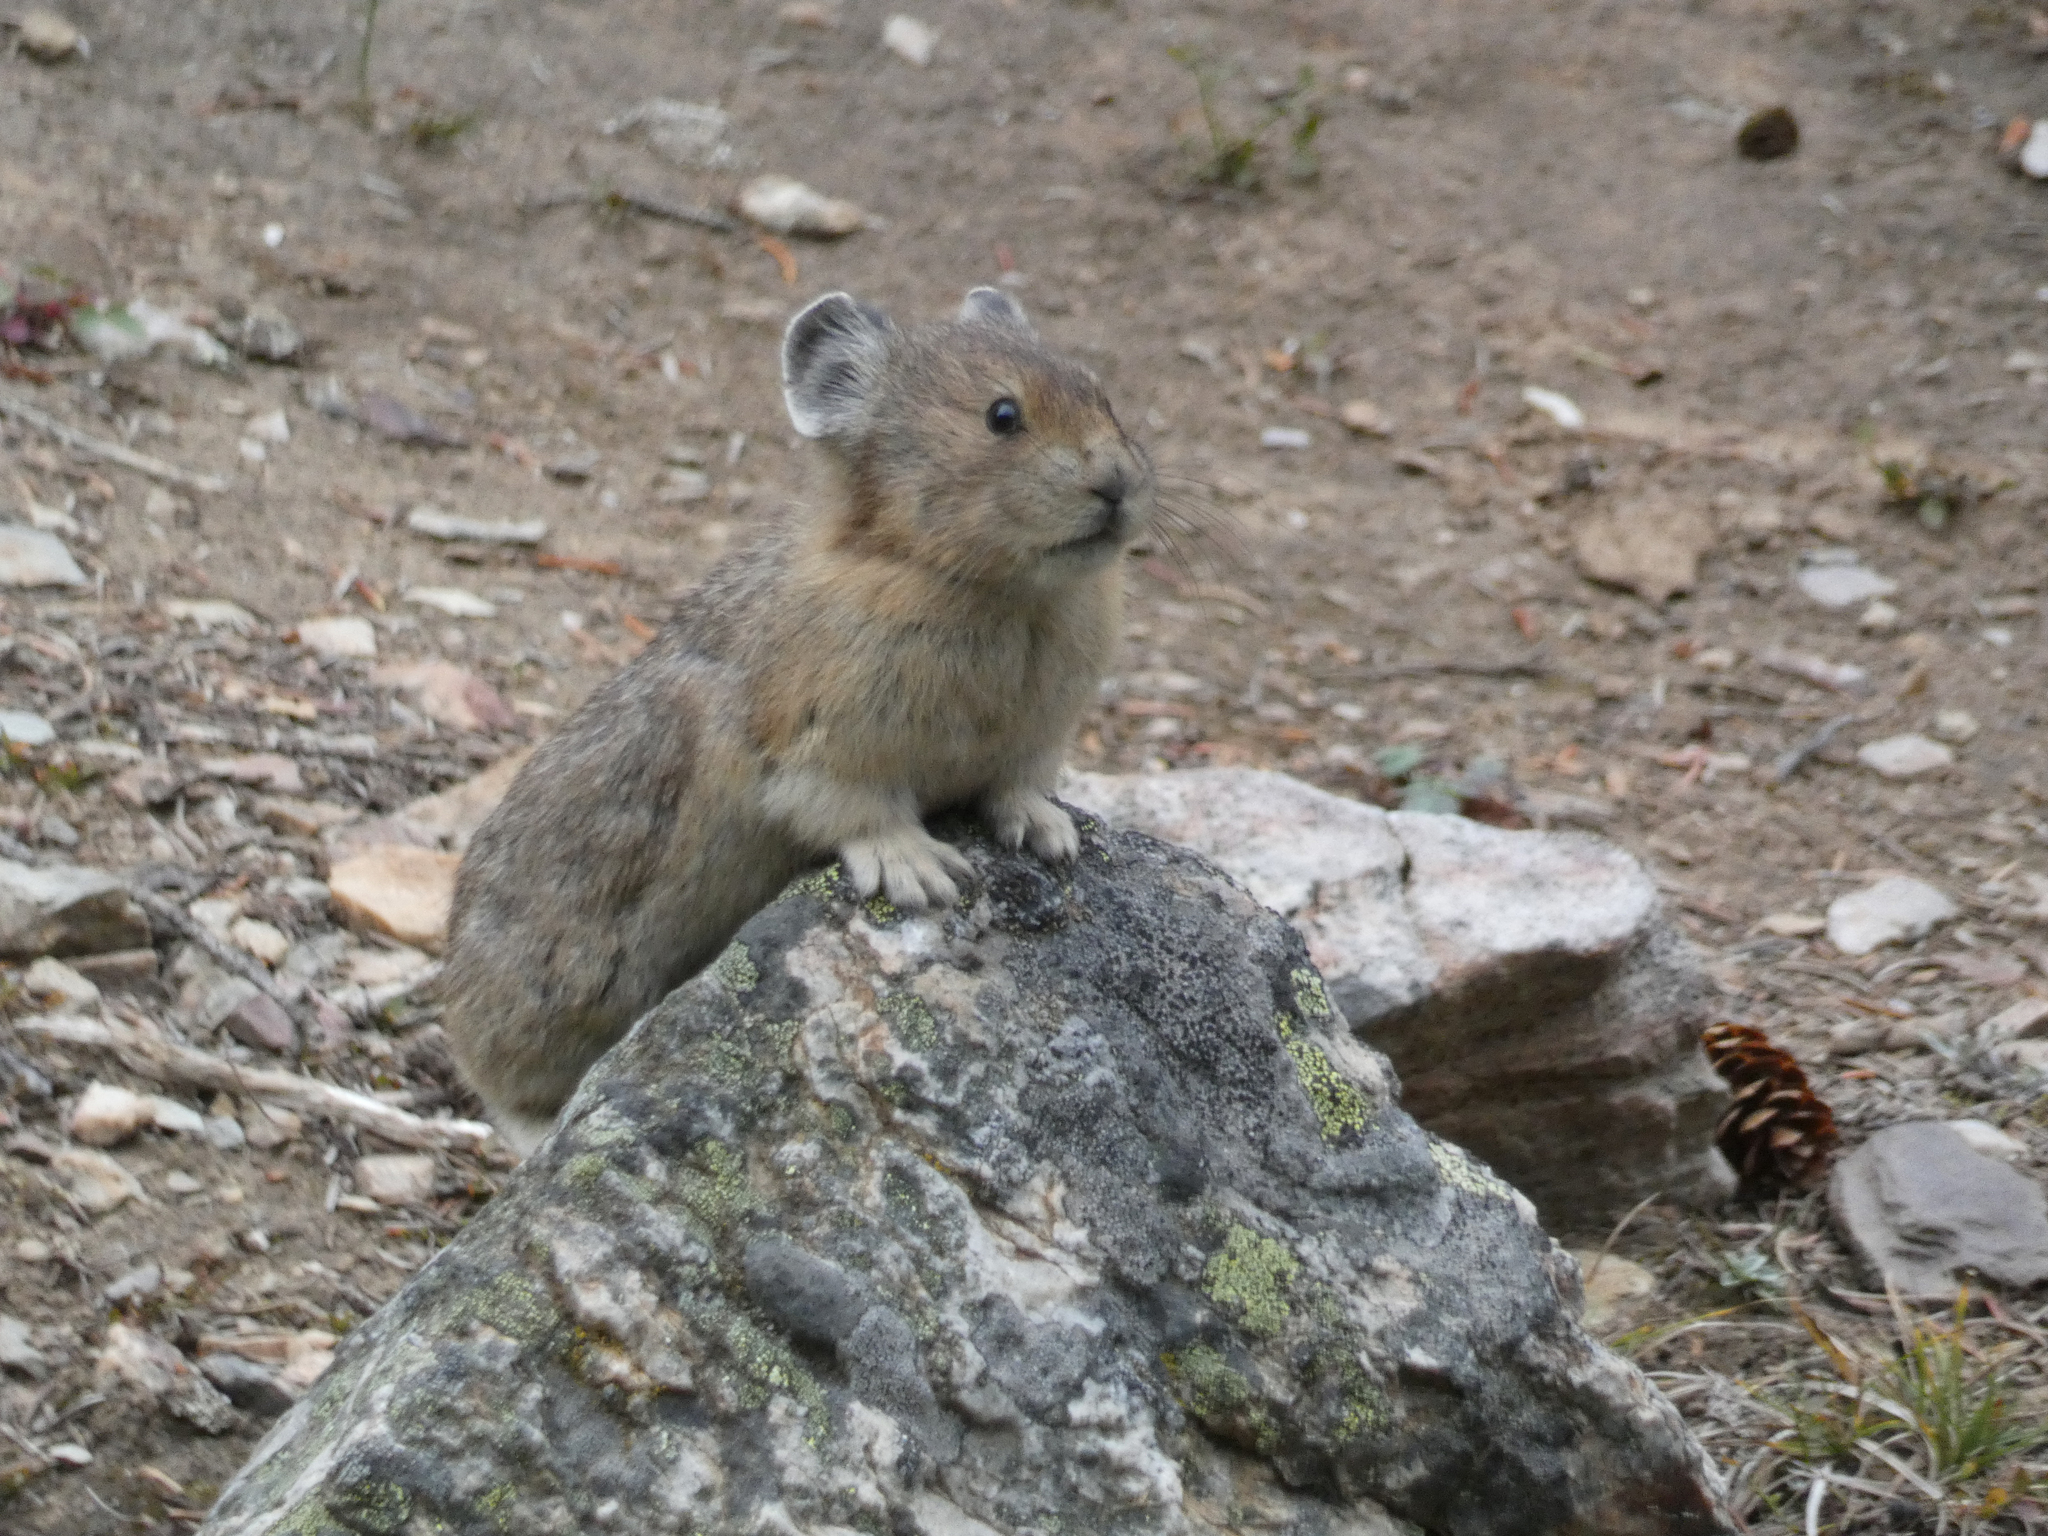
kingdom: Animalia
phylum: Chordata
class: Mammalia
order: Lagomorpha
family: Ochotonidae
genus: Ochotona
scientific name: Ochotona princeps
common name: American pika
